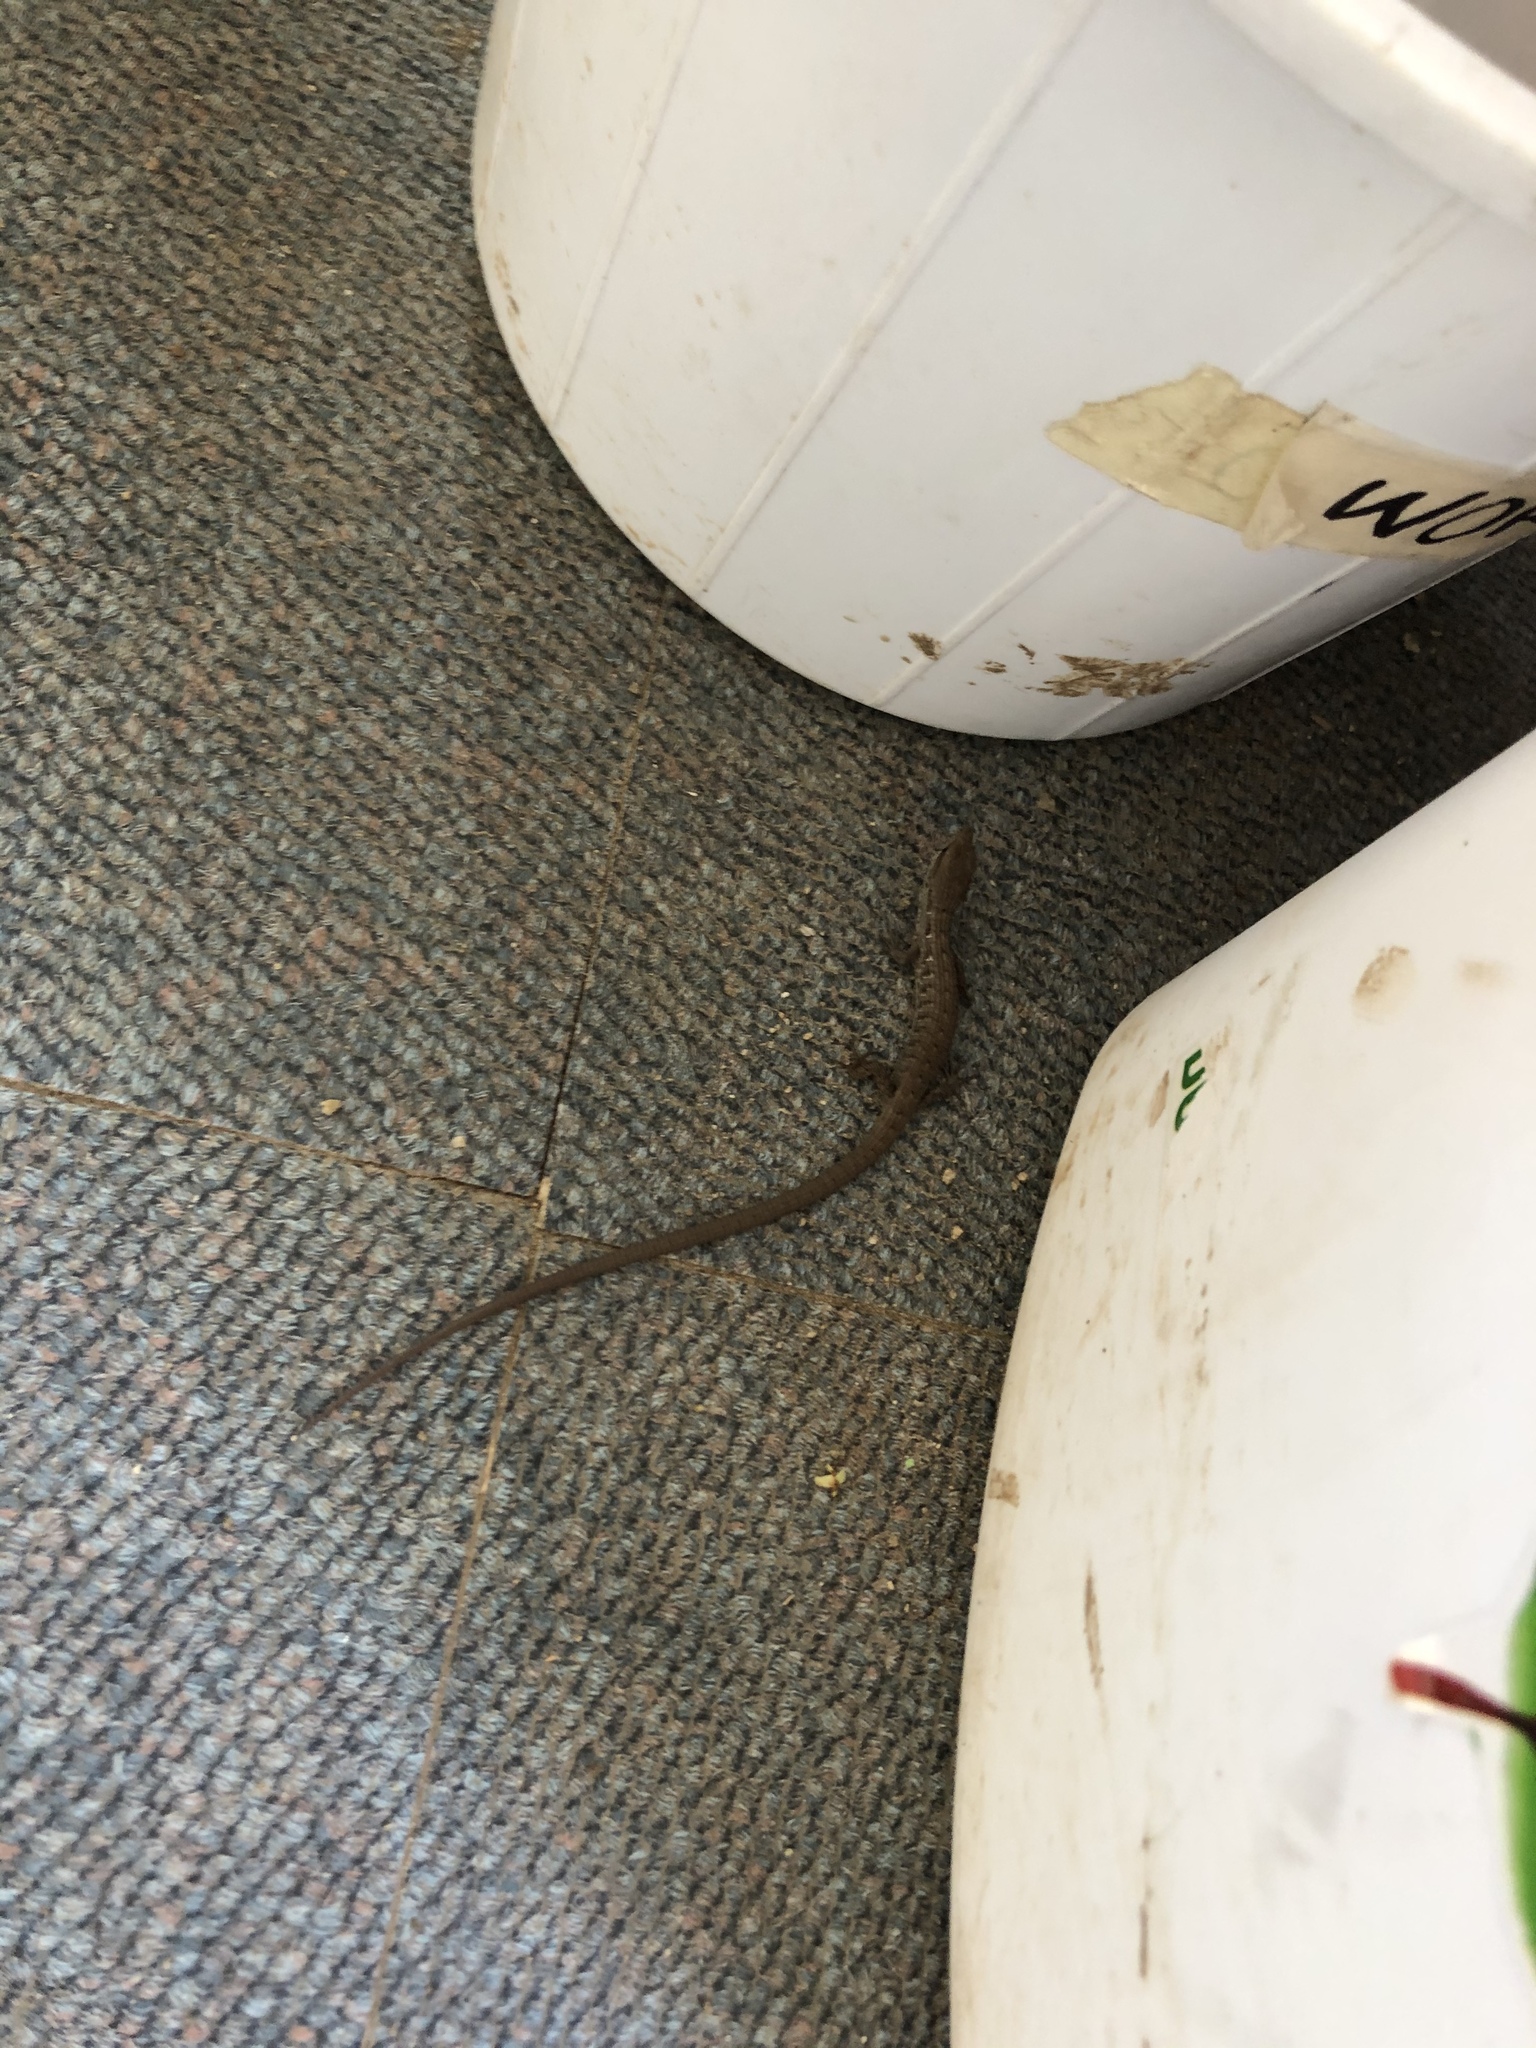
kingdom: Animalia
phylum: Chordata
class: Squamata
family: Anguidae
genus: Elgaria
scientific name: Elgaria multicarinata
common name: Southern alligator lizard
